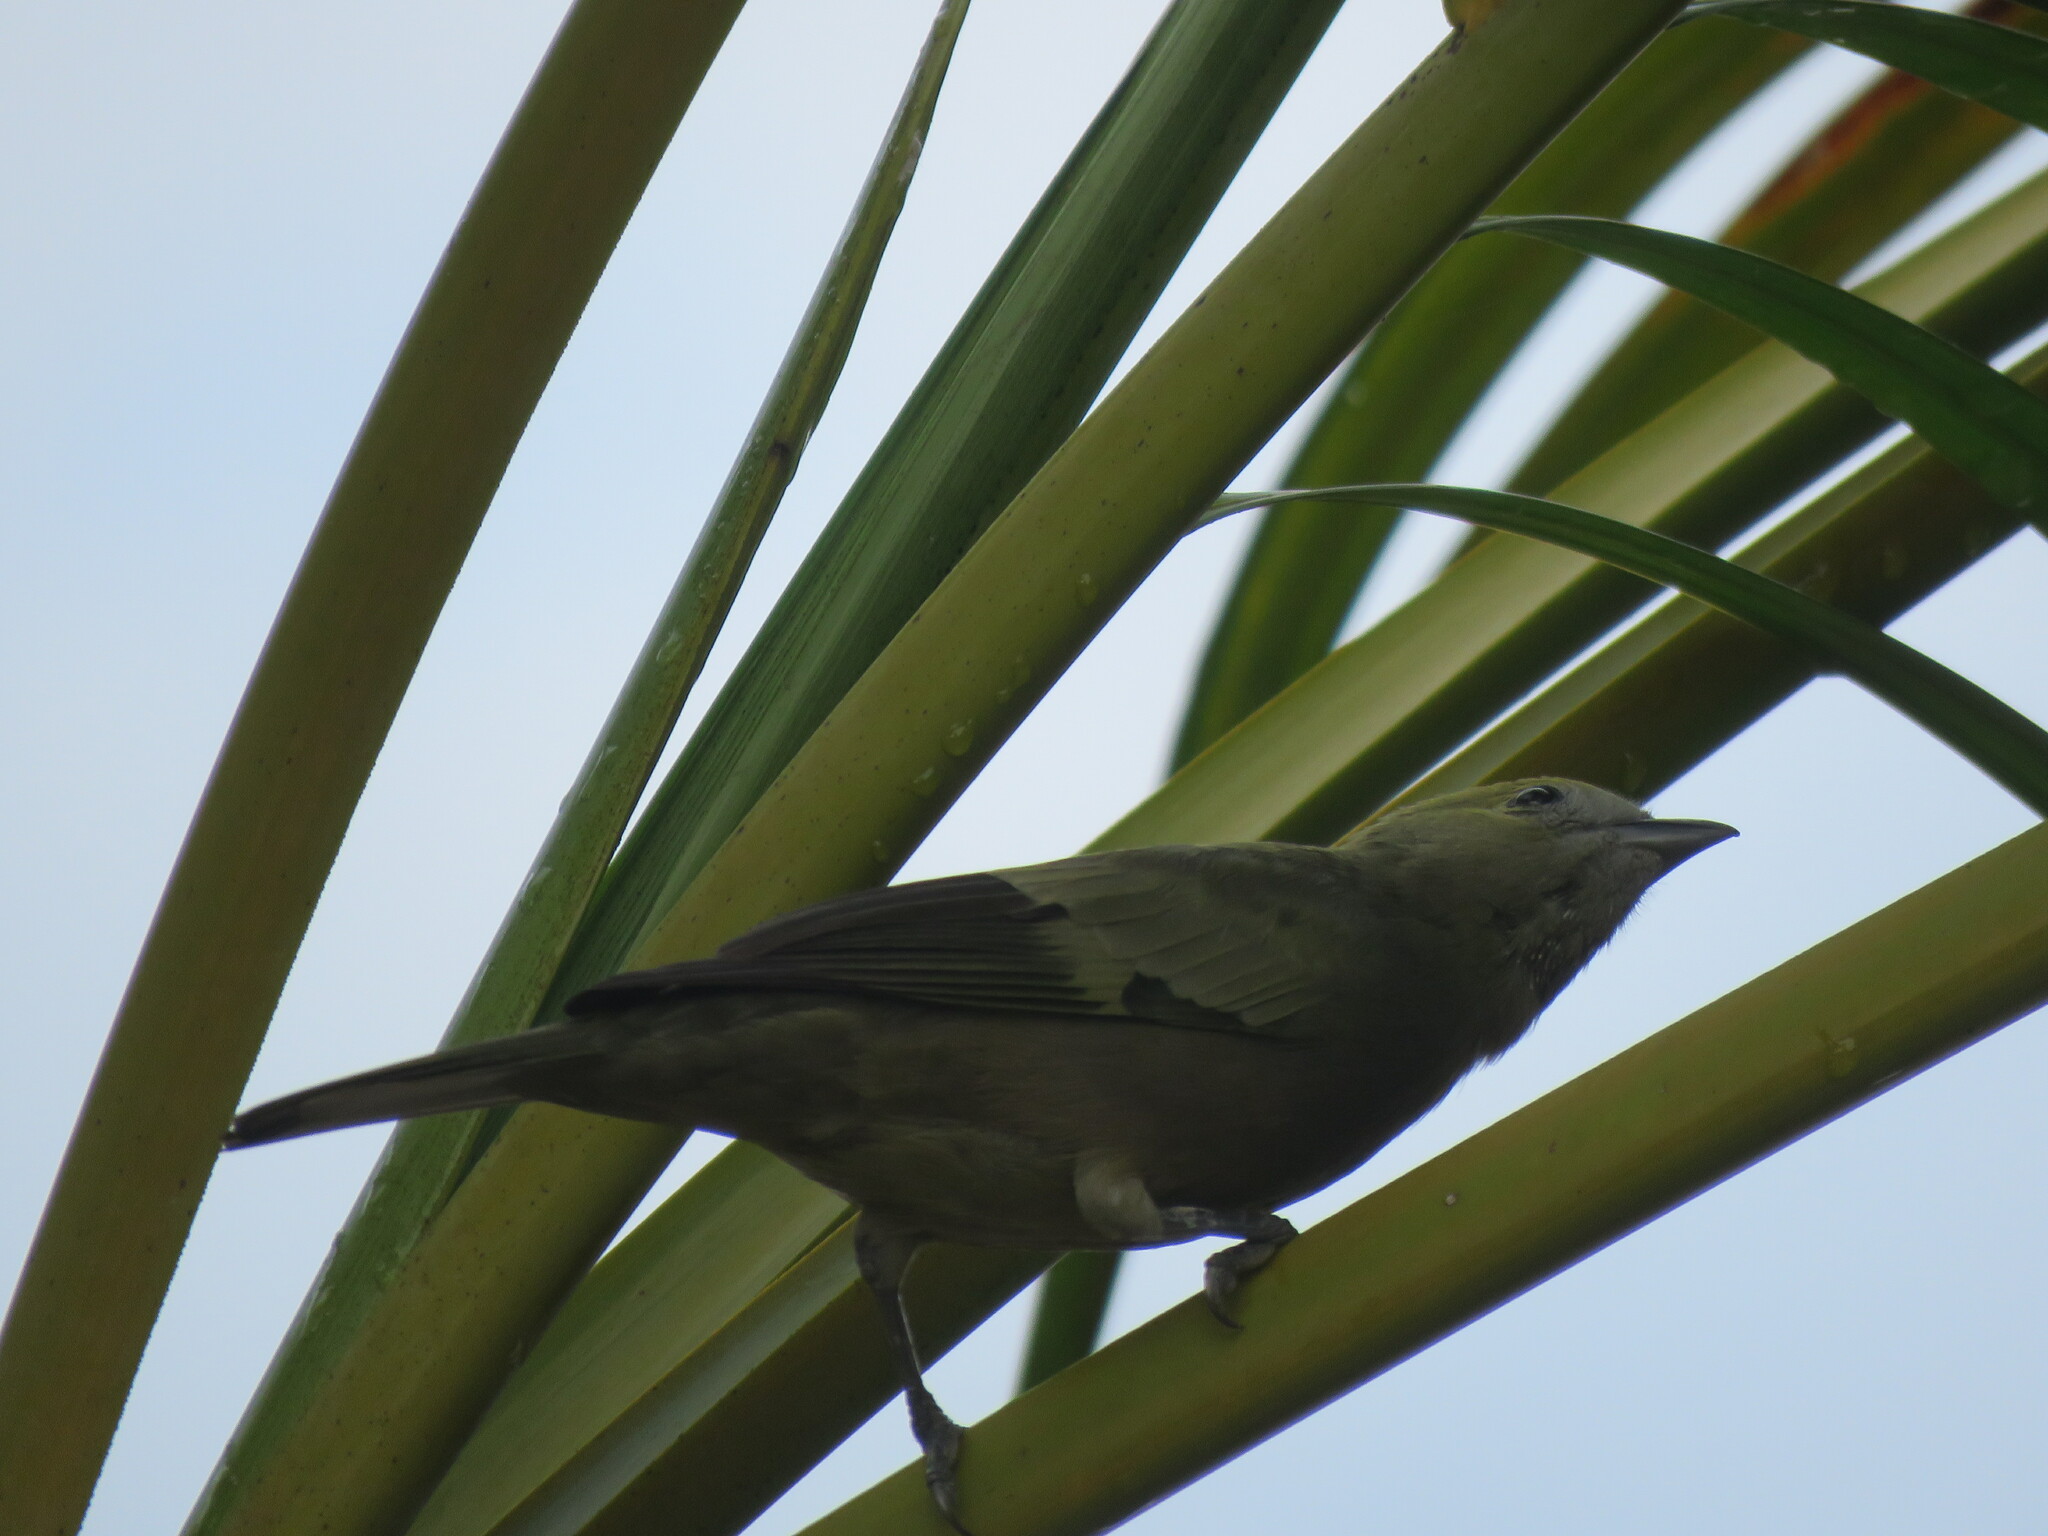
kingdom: Animalia
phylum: Chordata
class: Aves
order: Passeriformes
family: Thraupidae
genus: Thraupis
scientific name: Thraupis palmarum
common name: Palm tanager
